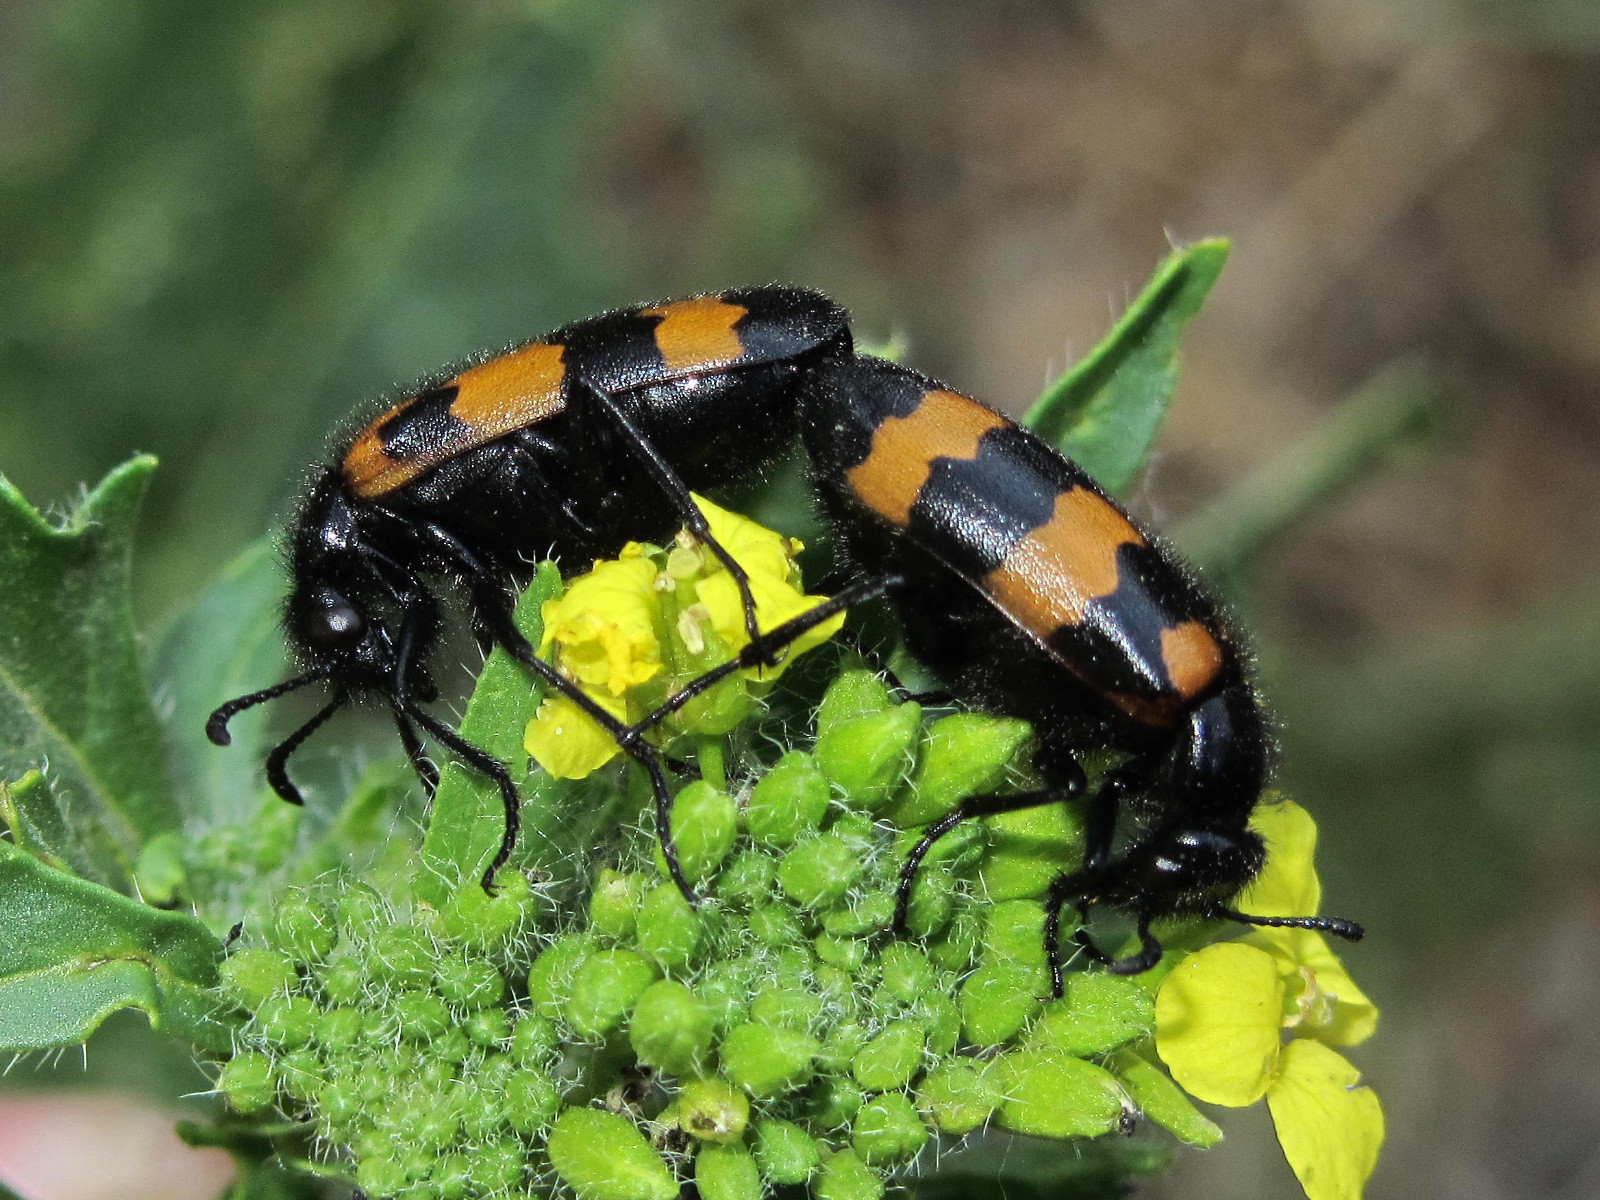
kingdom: Animalia
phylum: Arthropoda
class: Insecta
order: Coleoptera
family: Meloidae
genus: Mylabris
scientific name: Mylabris variabilis
